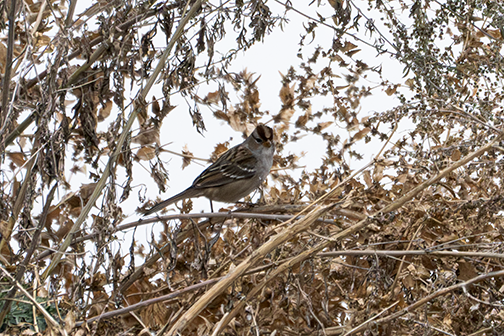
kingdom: Animalia
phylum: Chordata
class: Aves
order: Passeriformes
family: Passerellidae
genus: Zonotrichia
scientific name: Zonotrichia leucophrys
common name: White-crowned sparrow
